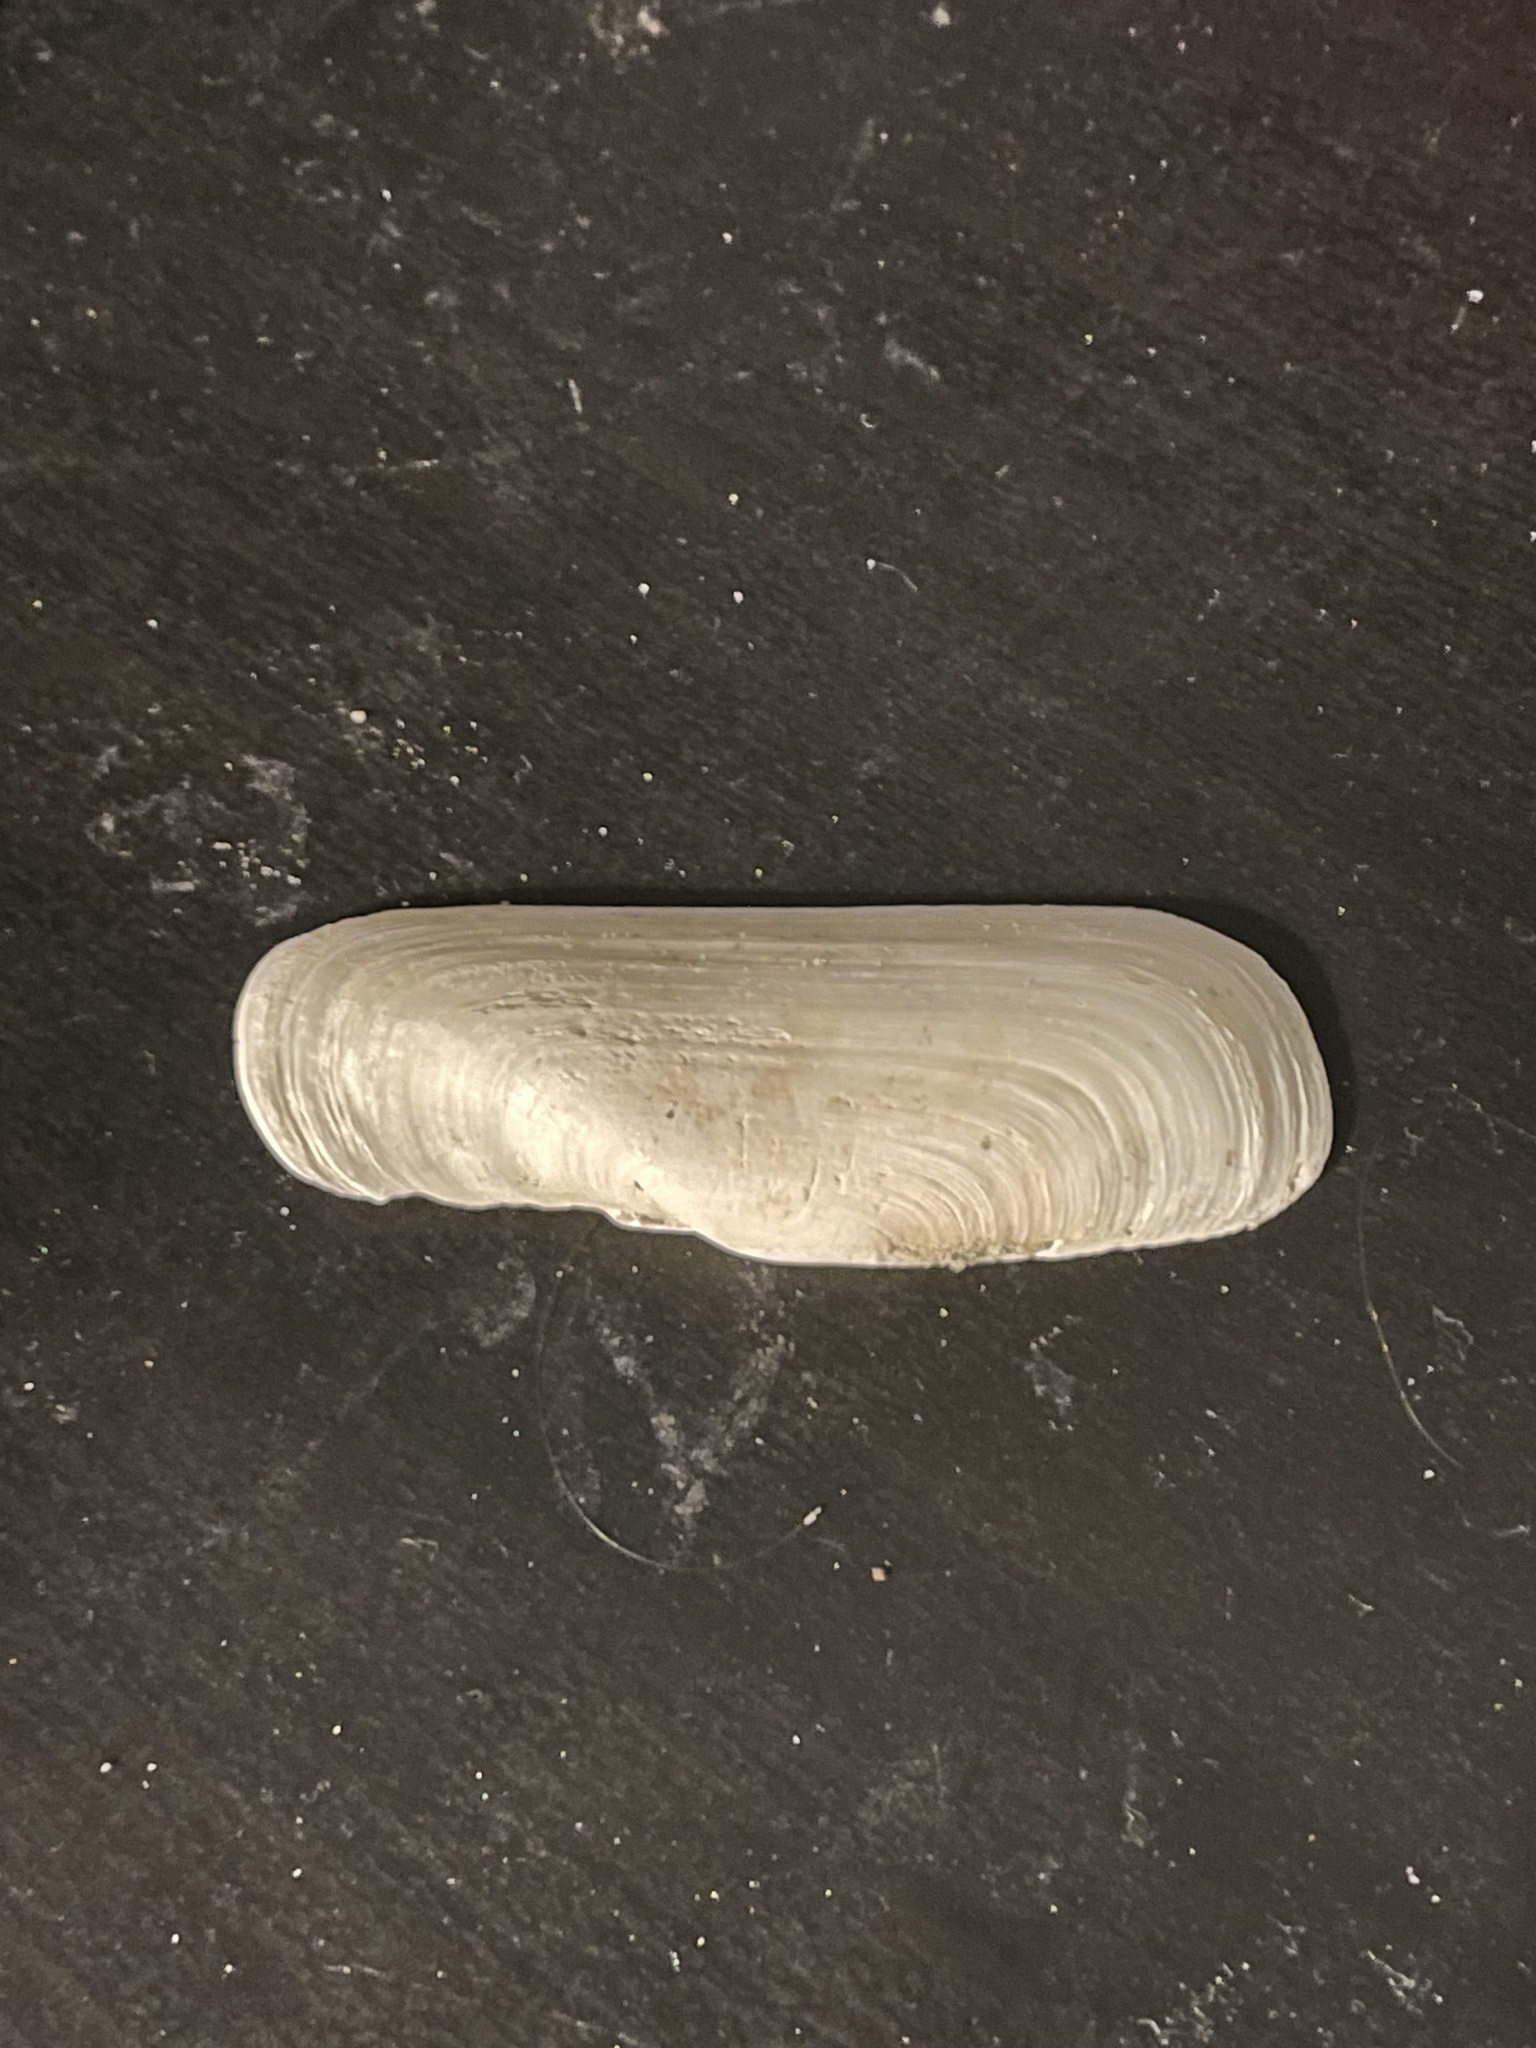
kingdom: Animalia
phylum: Mollusca
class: Bivalvia
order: Cardiida
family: Solecurtidae
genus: Tagelus
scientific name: Tagelus plebeius
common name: Stout tagelus
